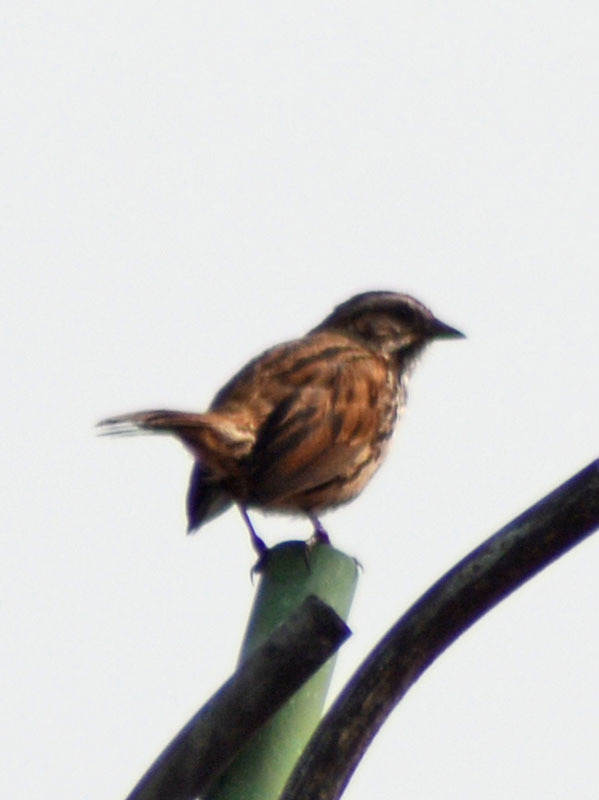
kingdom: Animalia
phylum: Chordata
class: Aves
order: Passeriformes
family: Passerellidae
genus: Melospiza
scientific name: Melospiza melodia
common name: Song sparrow
